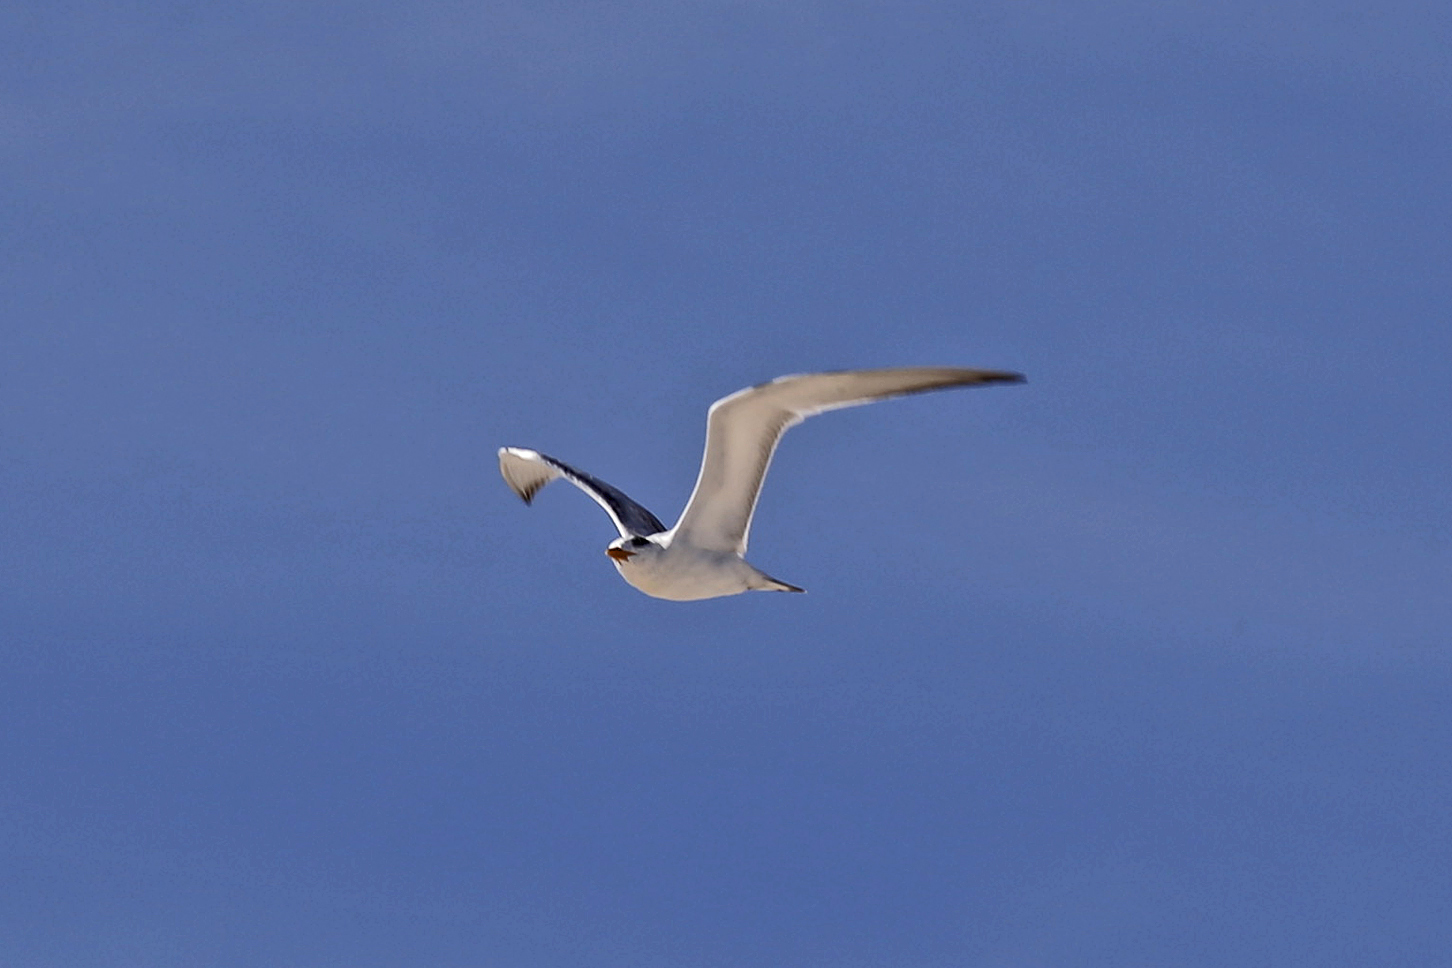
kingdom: Animalia
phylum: Chordata
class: Aves
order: Charadriiformes
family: Laridae
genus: Thalasseus
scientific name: Thalasseus maximus
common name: Royal tern
